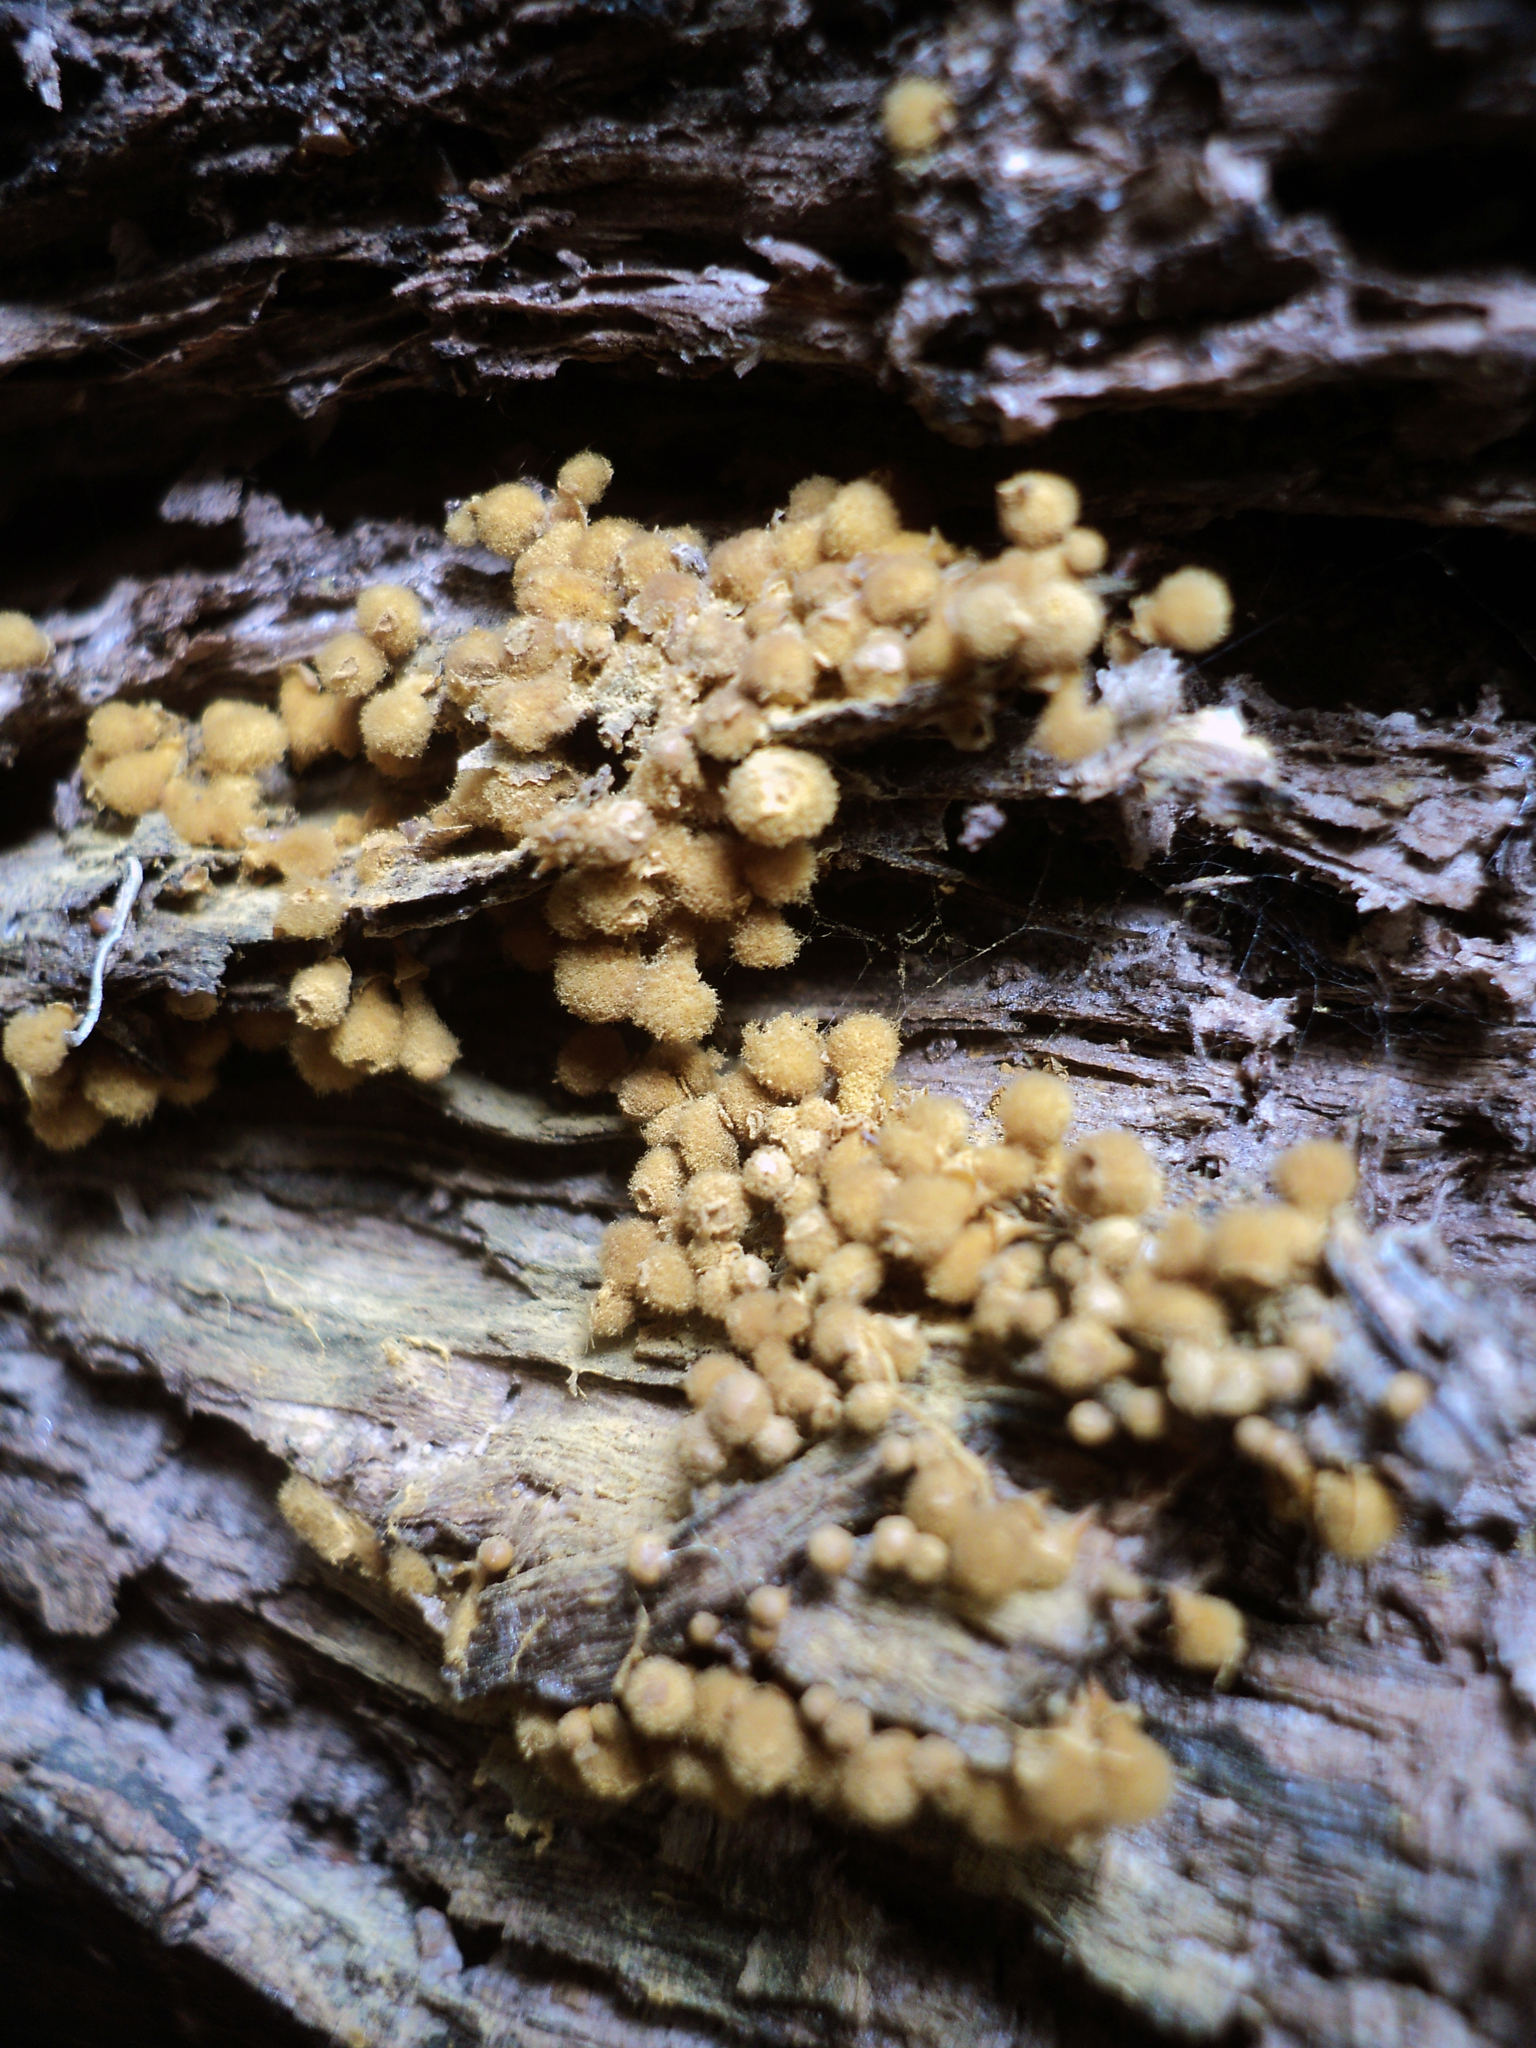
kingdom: Protozoa
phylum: Mycetozoa
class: Myxomycetes
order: Trichiales
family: Arcyriaceae
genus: Hemitrichia
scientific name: Hemitrichia calyculata
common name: Push pin slime mold
